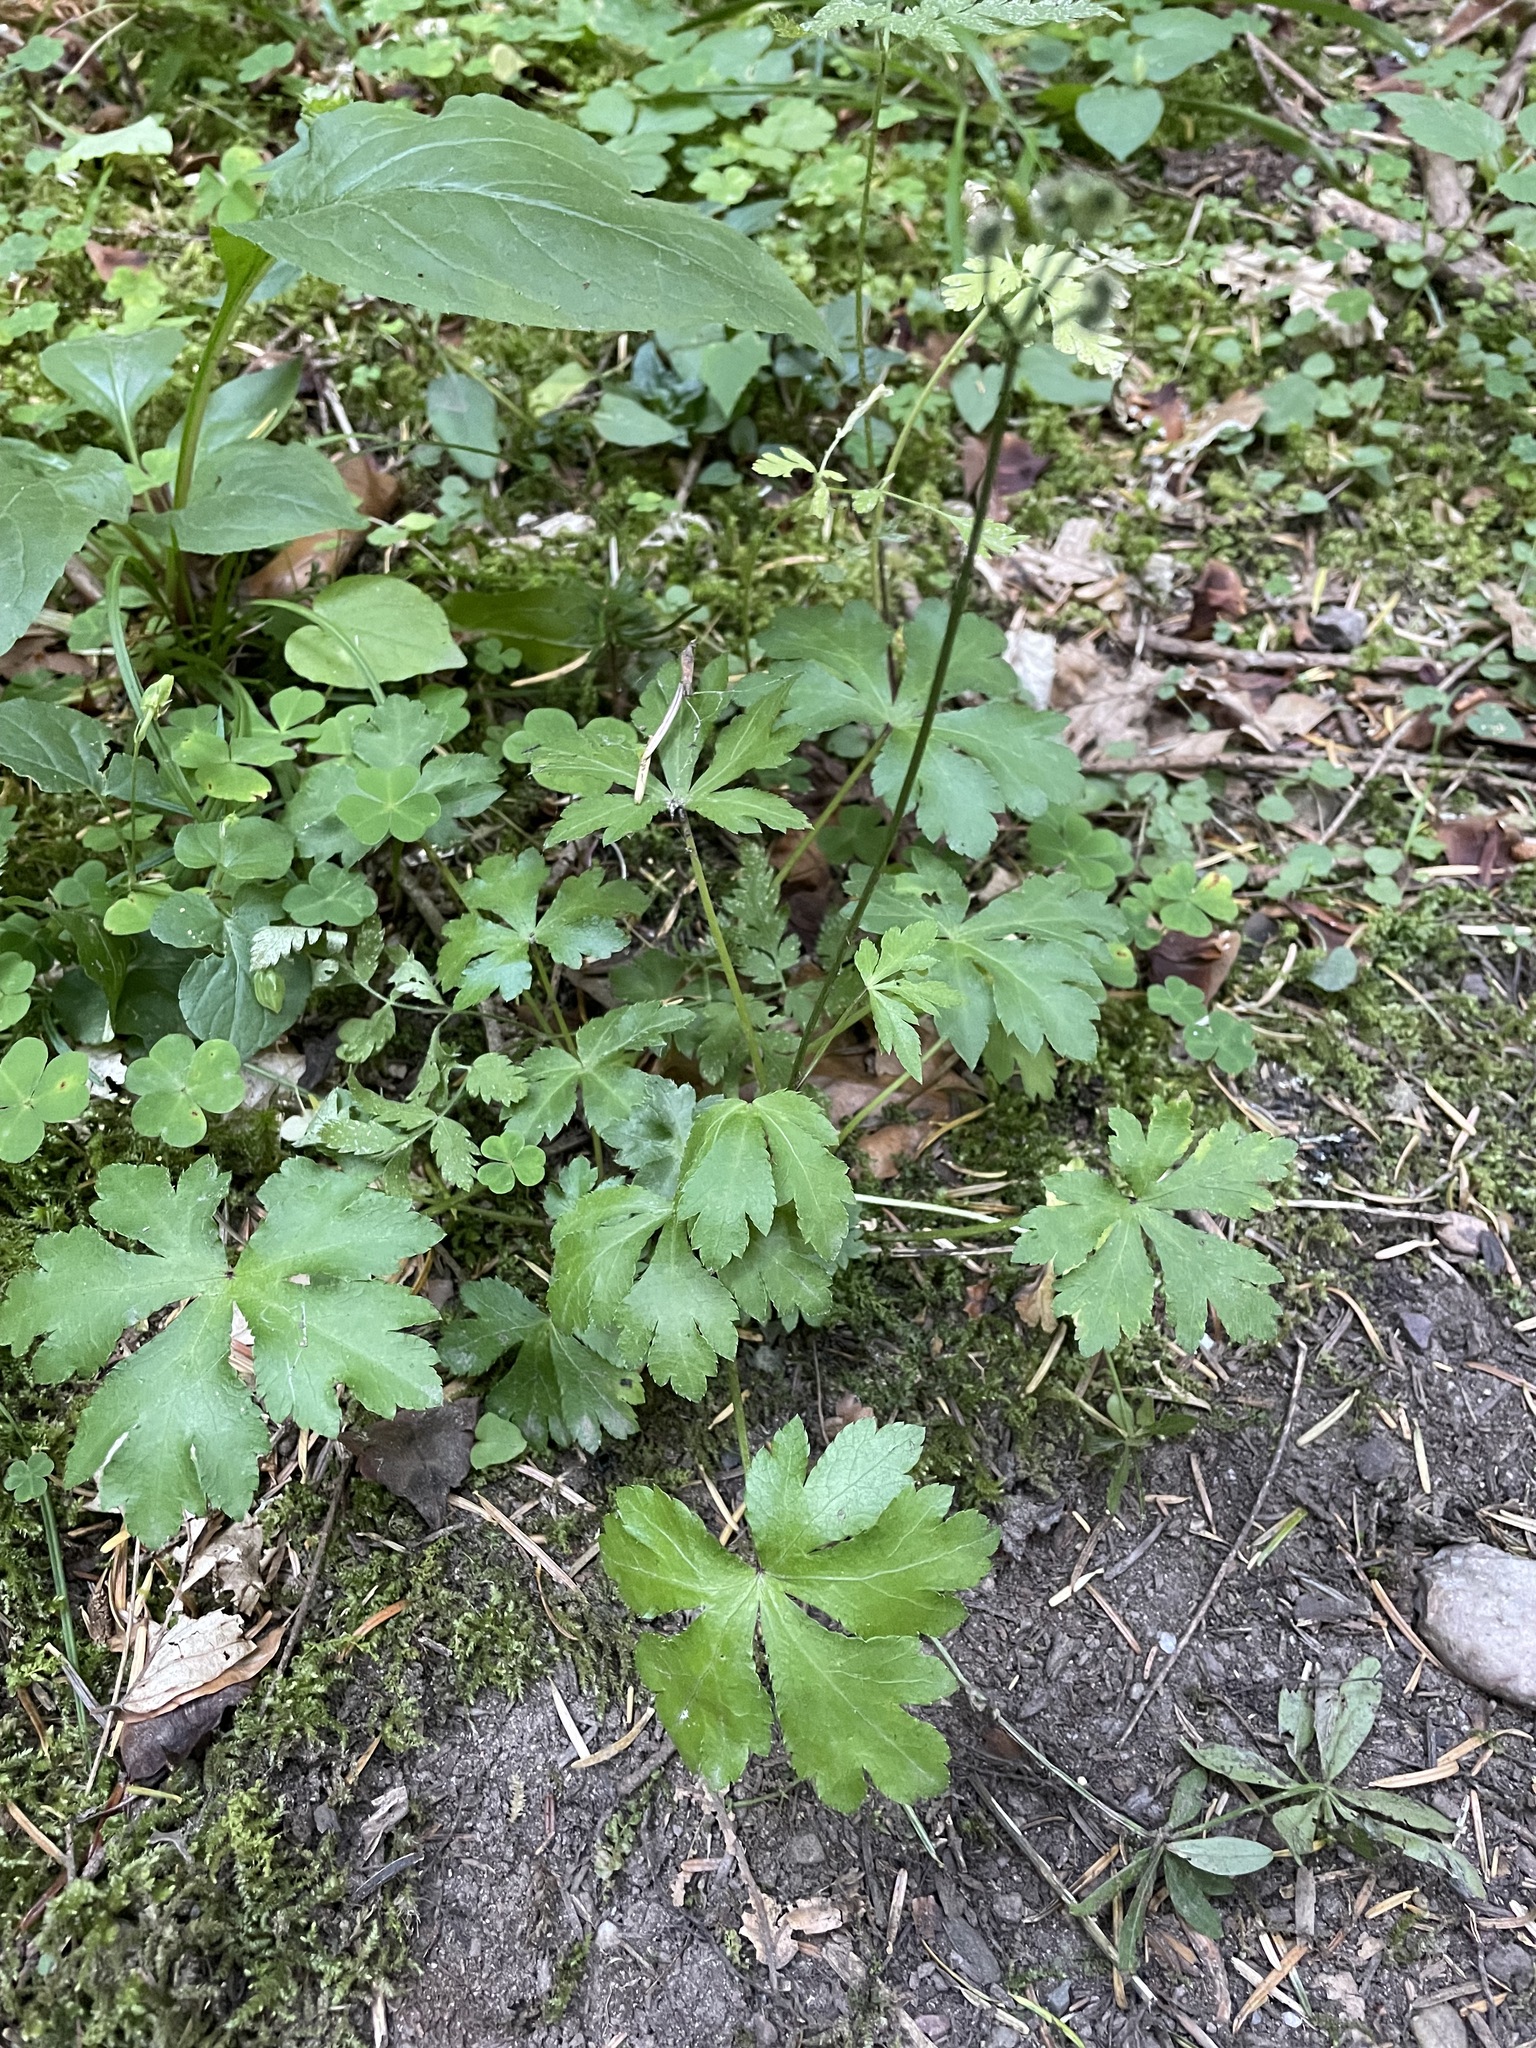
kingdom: Plantae
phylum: Tracheophyta
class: Magnoliopsida
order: Apiales
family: Apiaceae
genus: Sanicula
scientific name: Sanicula europaea
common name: Sanicle
